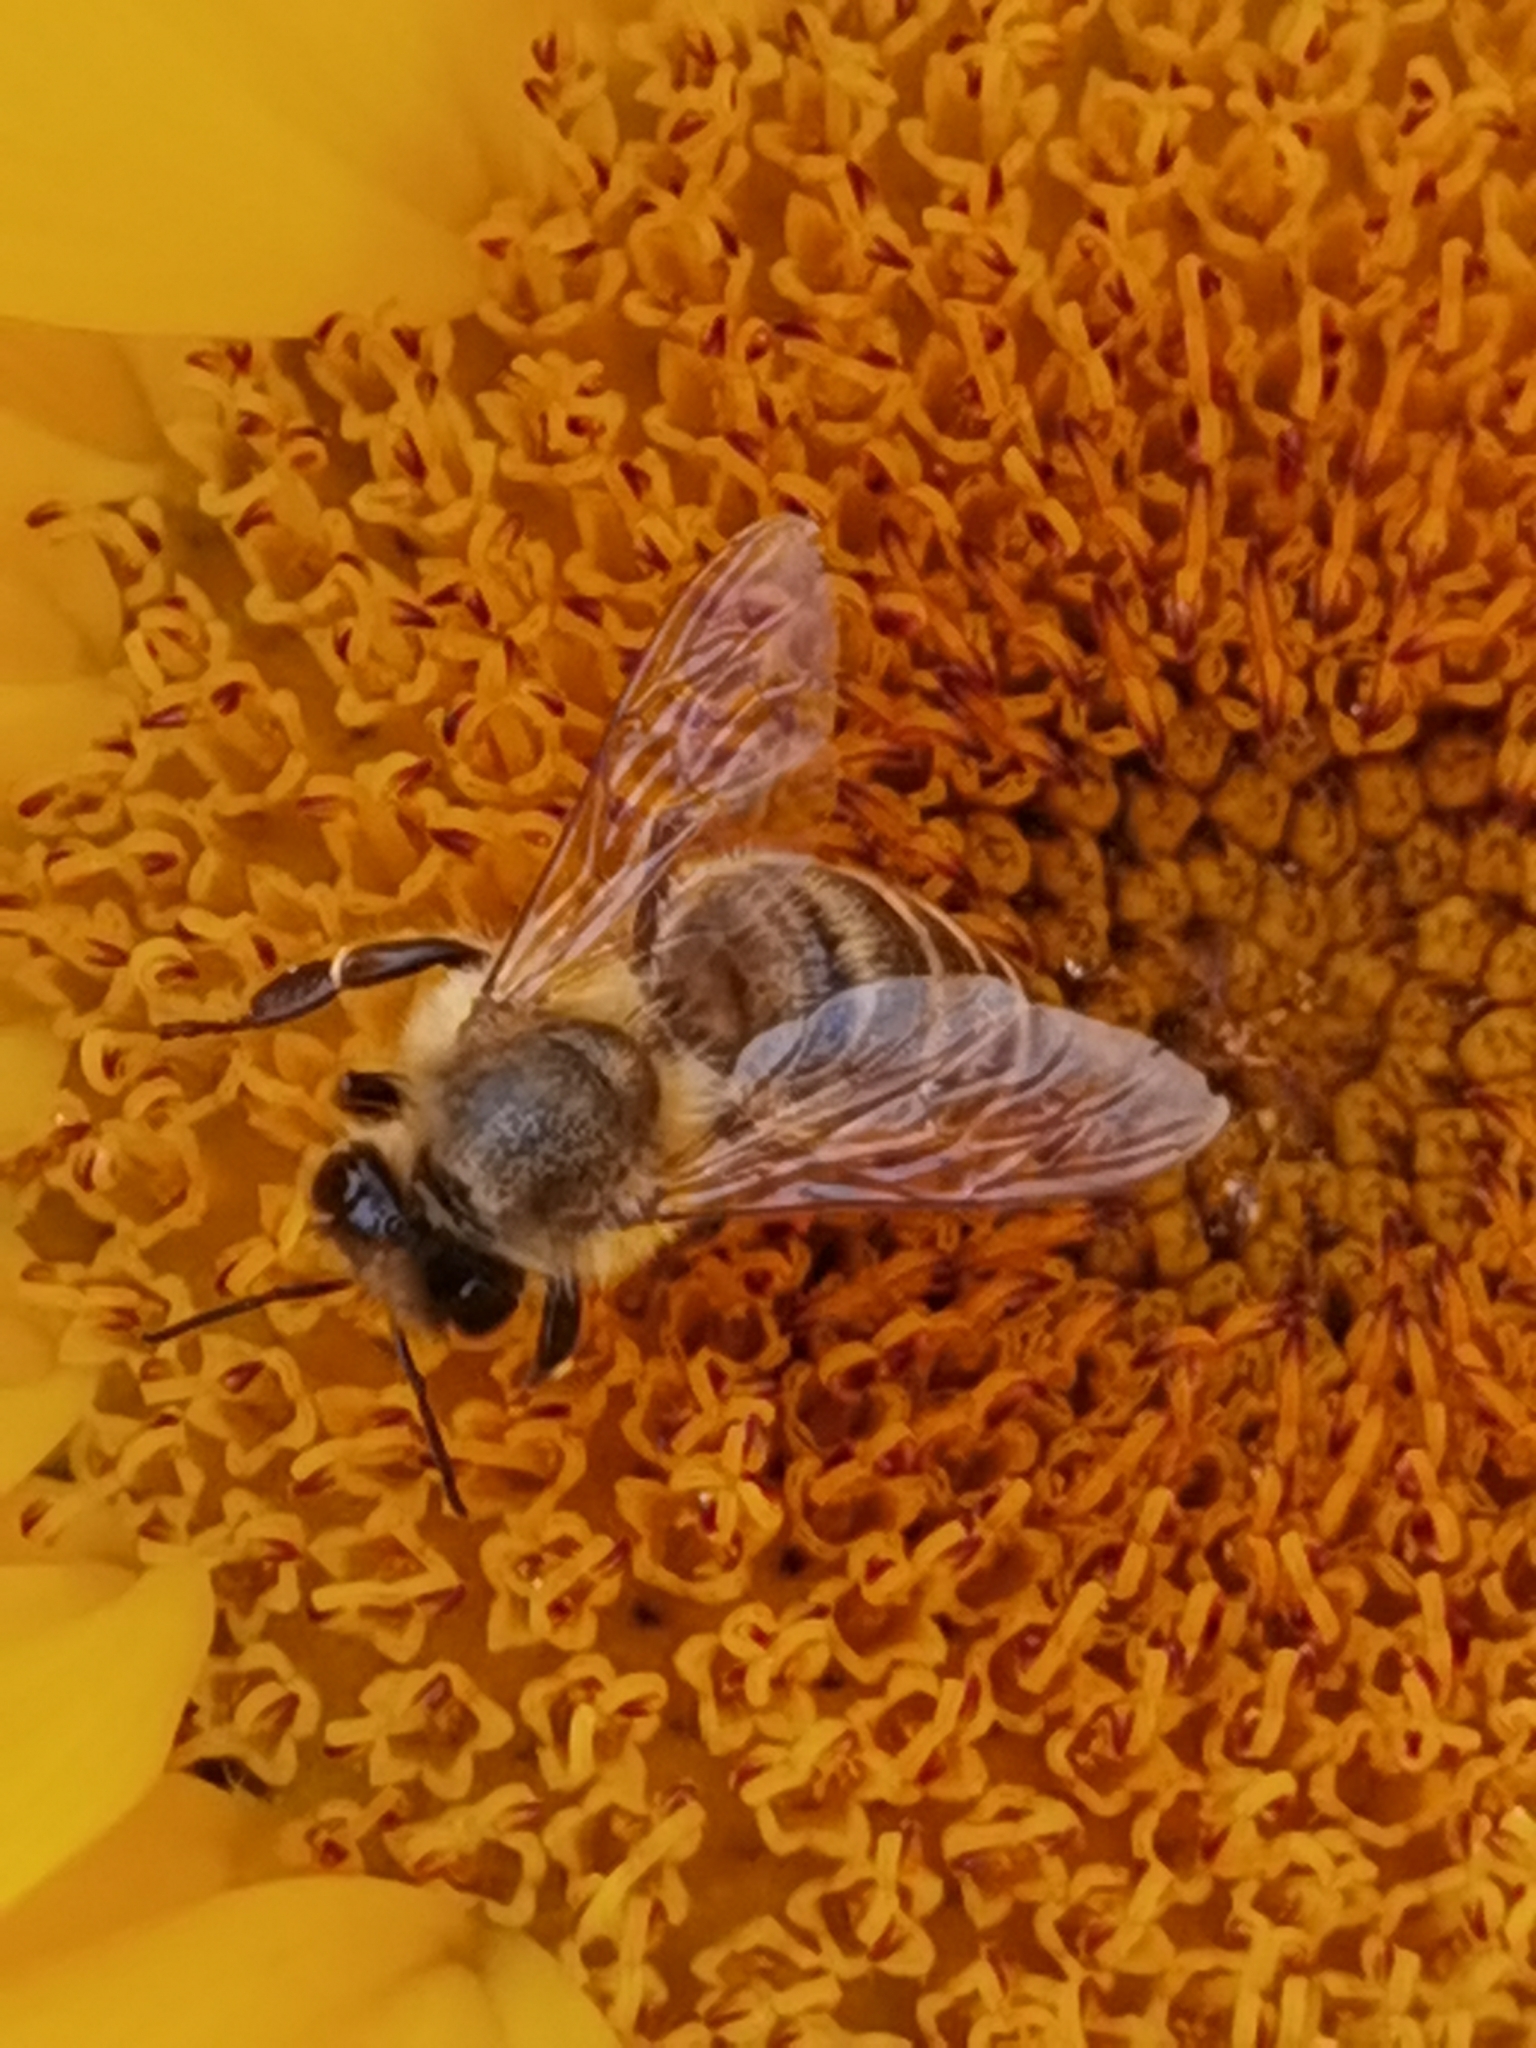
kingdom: Animalia
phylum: Arthropoda
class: Insecta
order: Hymenoptera
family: Apidae
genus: Apis
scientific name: Apis mellifera
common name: Honey bee
